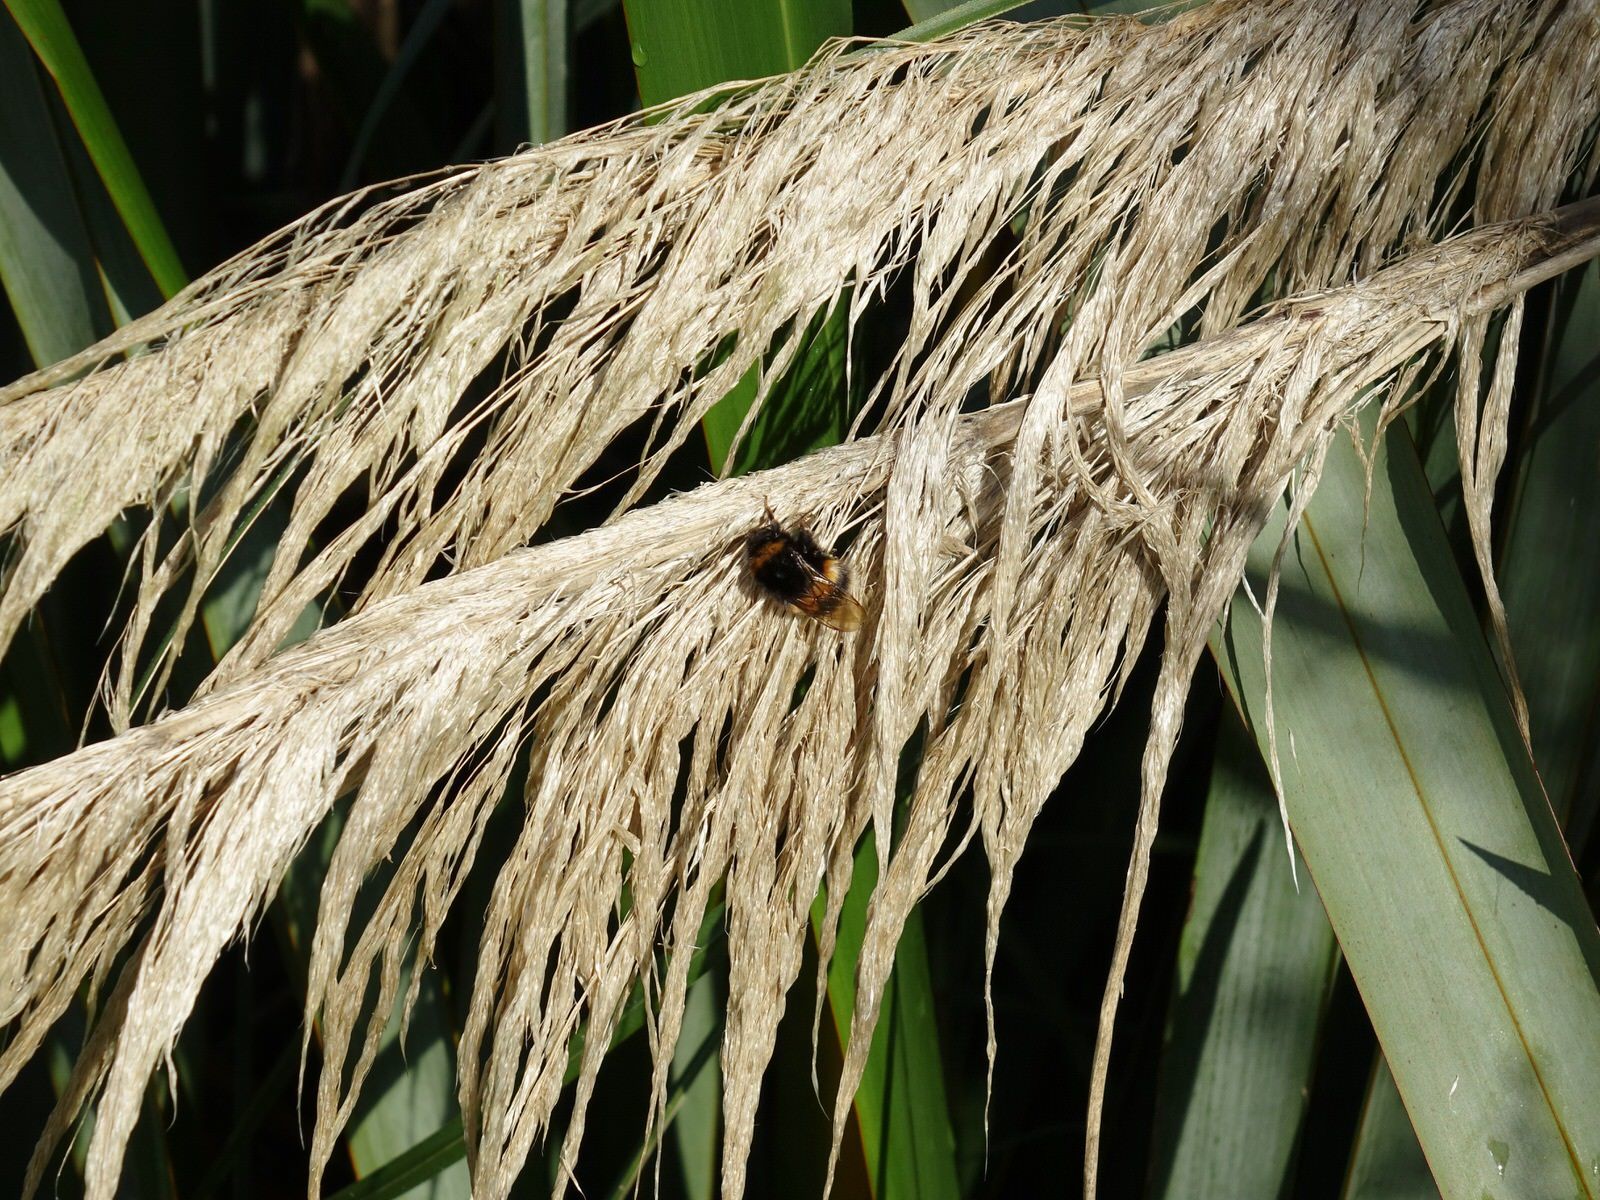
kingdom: Animalia
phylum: Arthropoda
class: Insecta
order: Hymenoptera
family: Apidae
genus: Bombus
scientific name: Bombus terrestris
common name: Buff-tailed bumblebee
